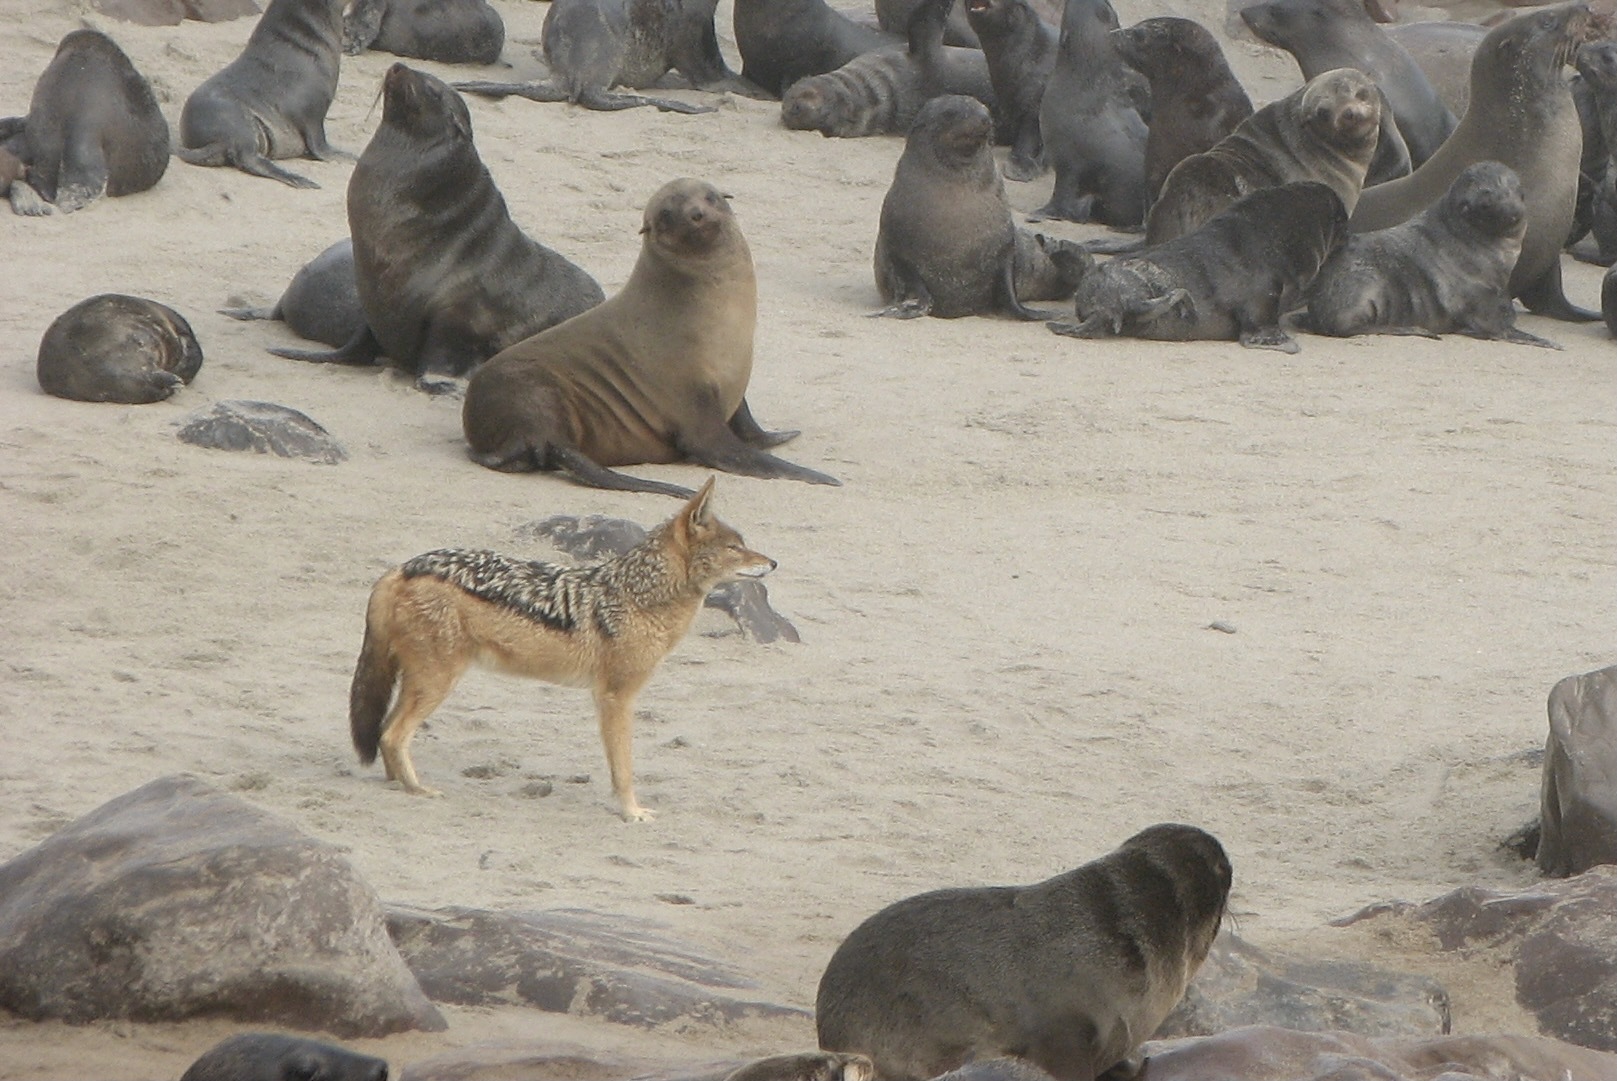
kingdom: Animalia
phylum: Chordata
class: Mammalia
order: Carnivora
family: Canidae
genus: Lupulella
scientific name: Lupulella
